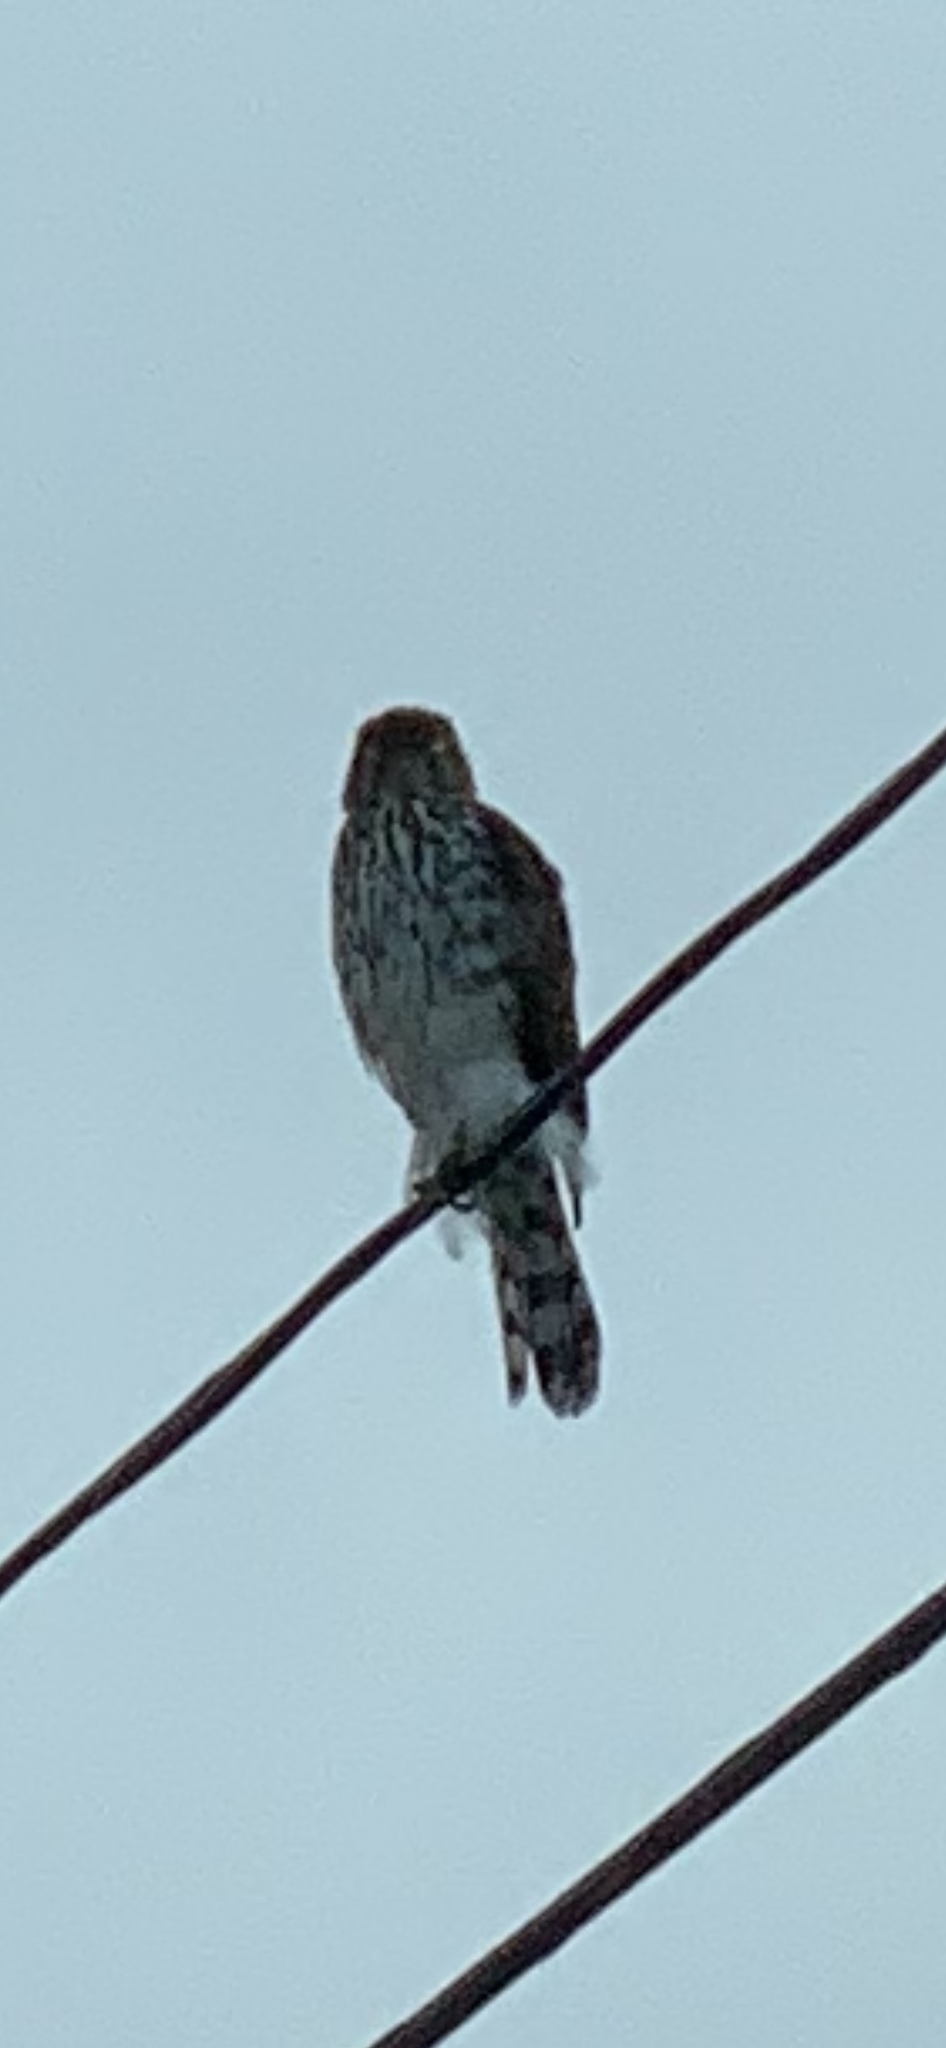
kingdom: Animalia
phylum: Chordata
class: Aves
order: Accipitriformes
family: Accipitridae
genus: Accipiter
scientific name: Accipiter cooperii
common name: Cooper's hawk
